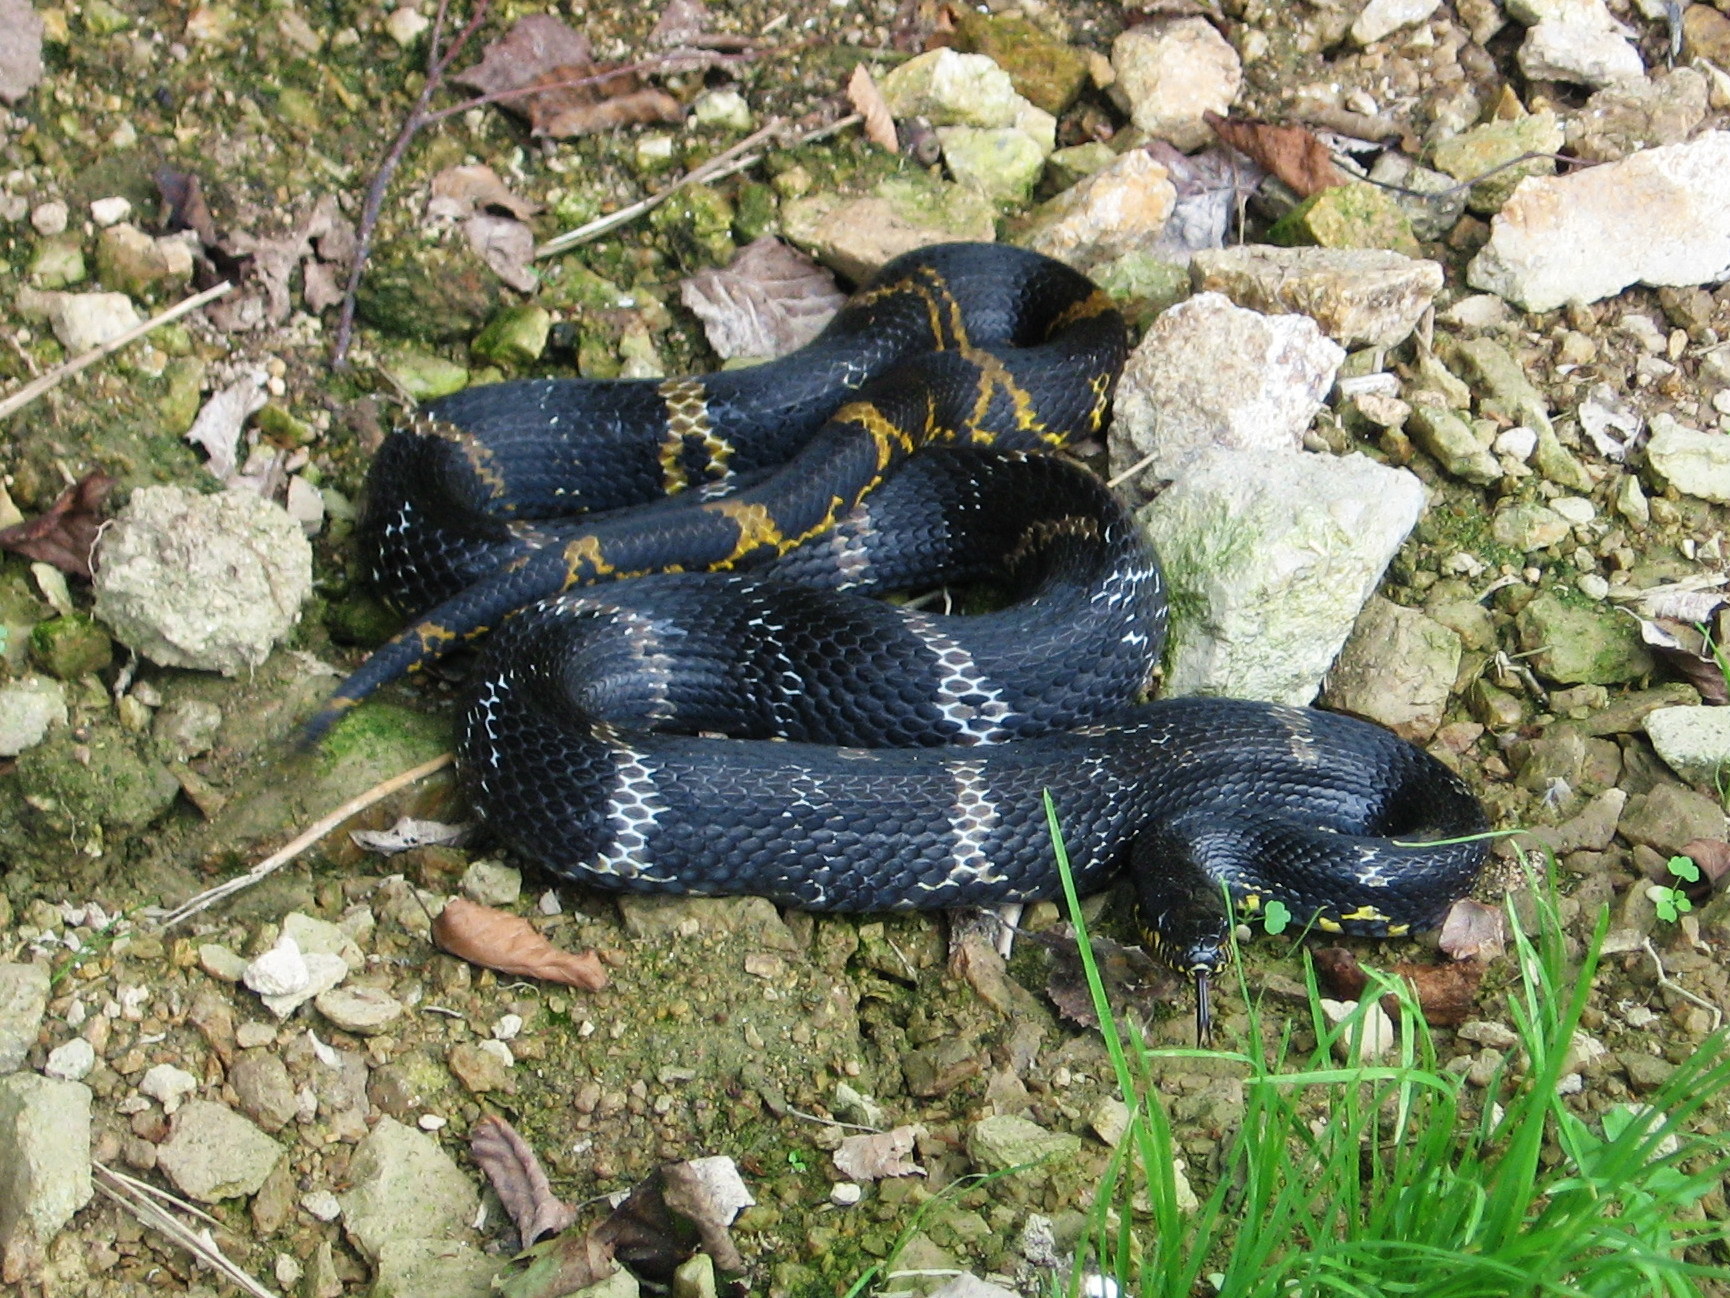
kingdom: Animalia
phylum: Chordata
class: Squamata
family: Colubridae
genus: Elaphe
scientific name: Elaphe schrenckii
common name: Amur rat snake
